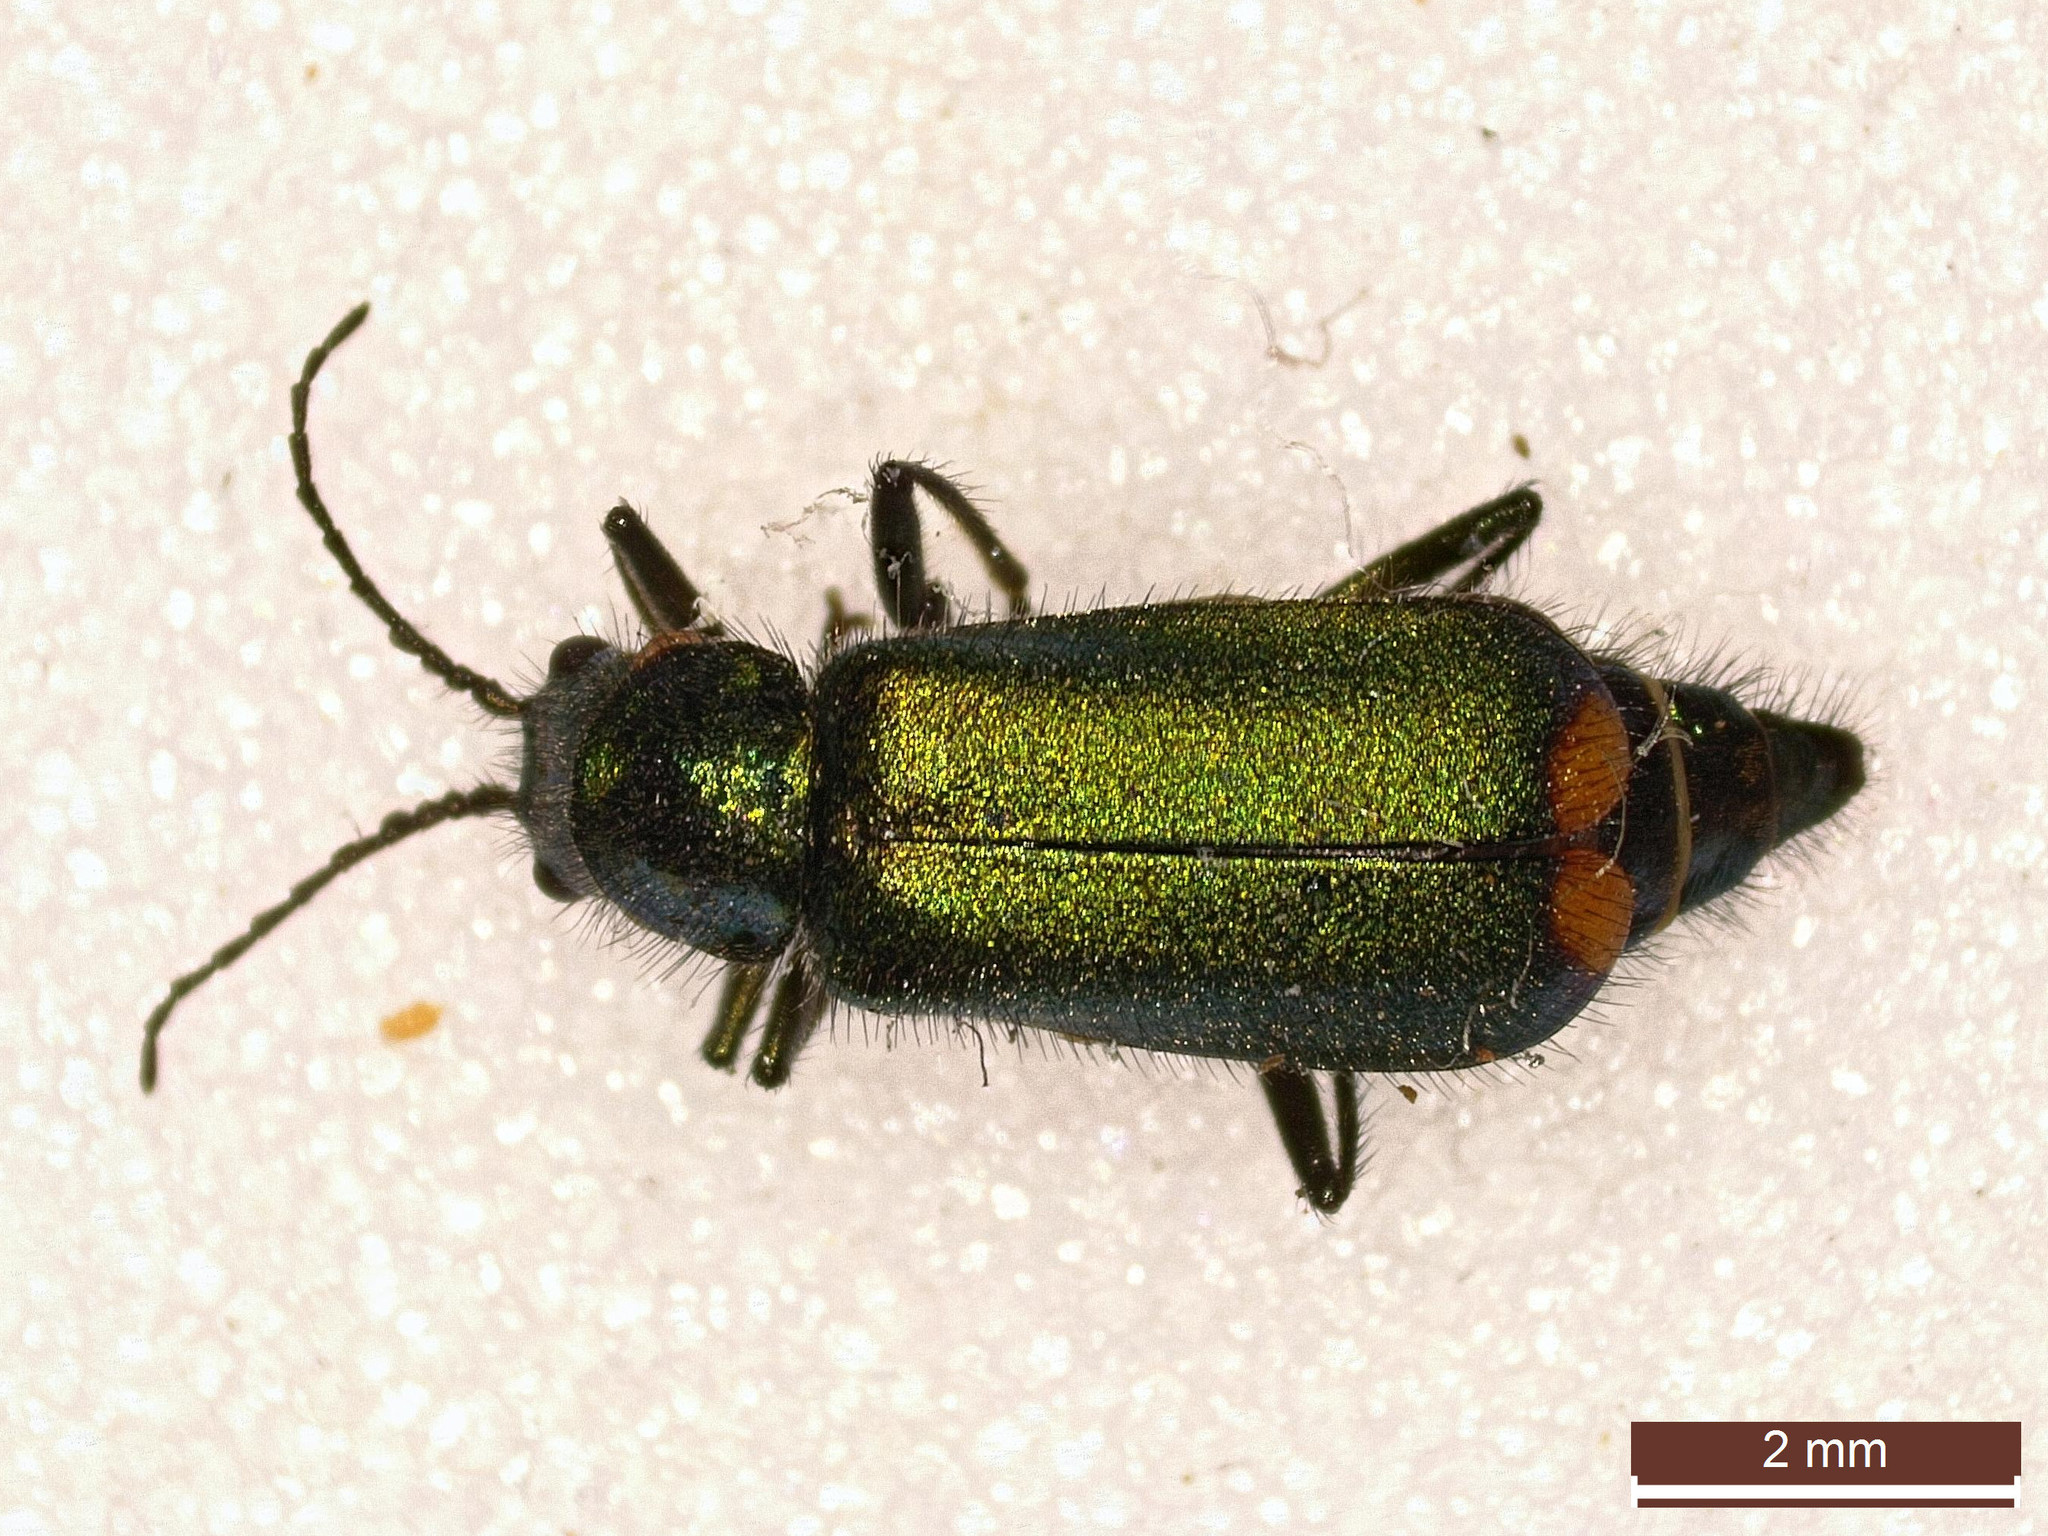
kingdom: Animalia
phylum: Arthropoda
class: Insecta
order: Coleoptera
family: Melyridae
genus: Malachius
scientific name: Malachius bipustulatus
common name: Malachite beetle
